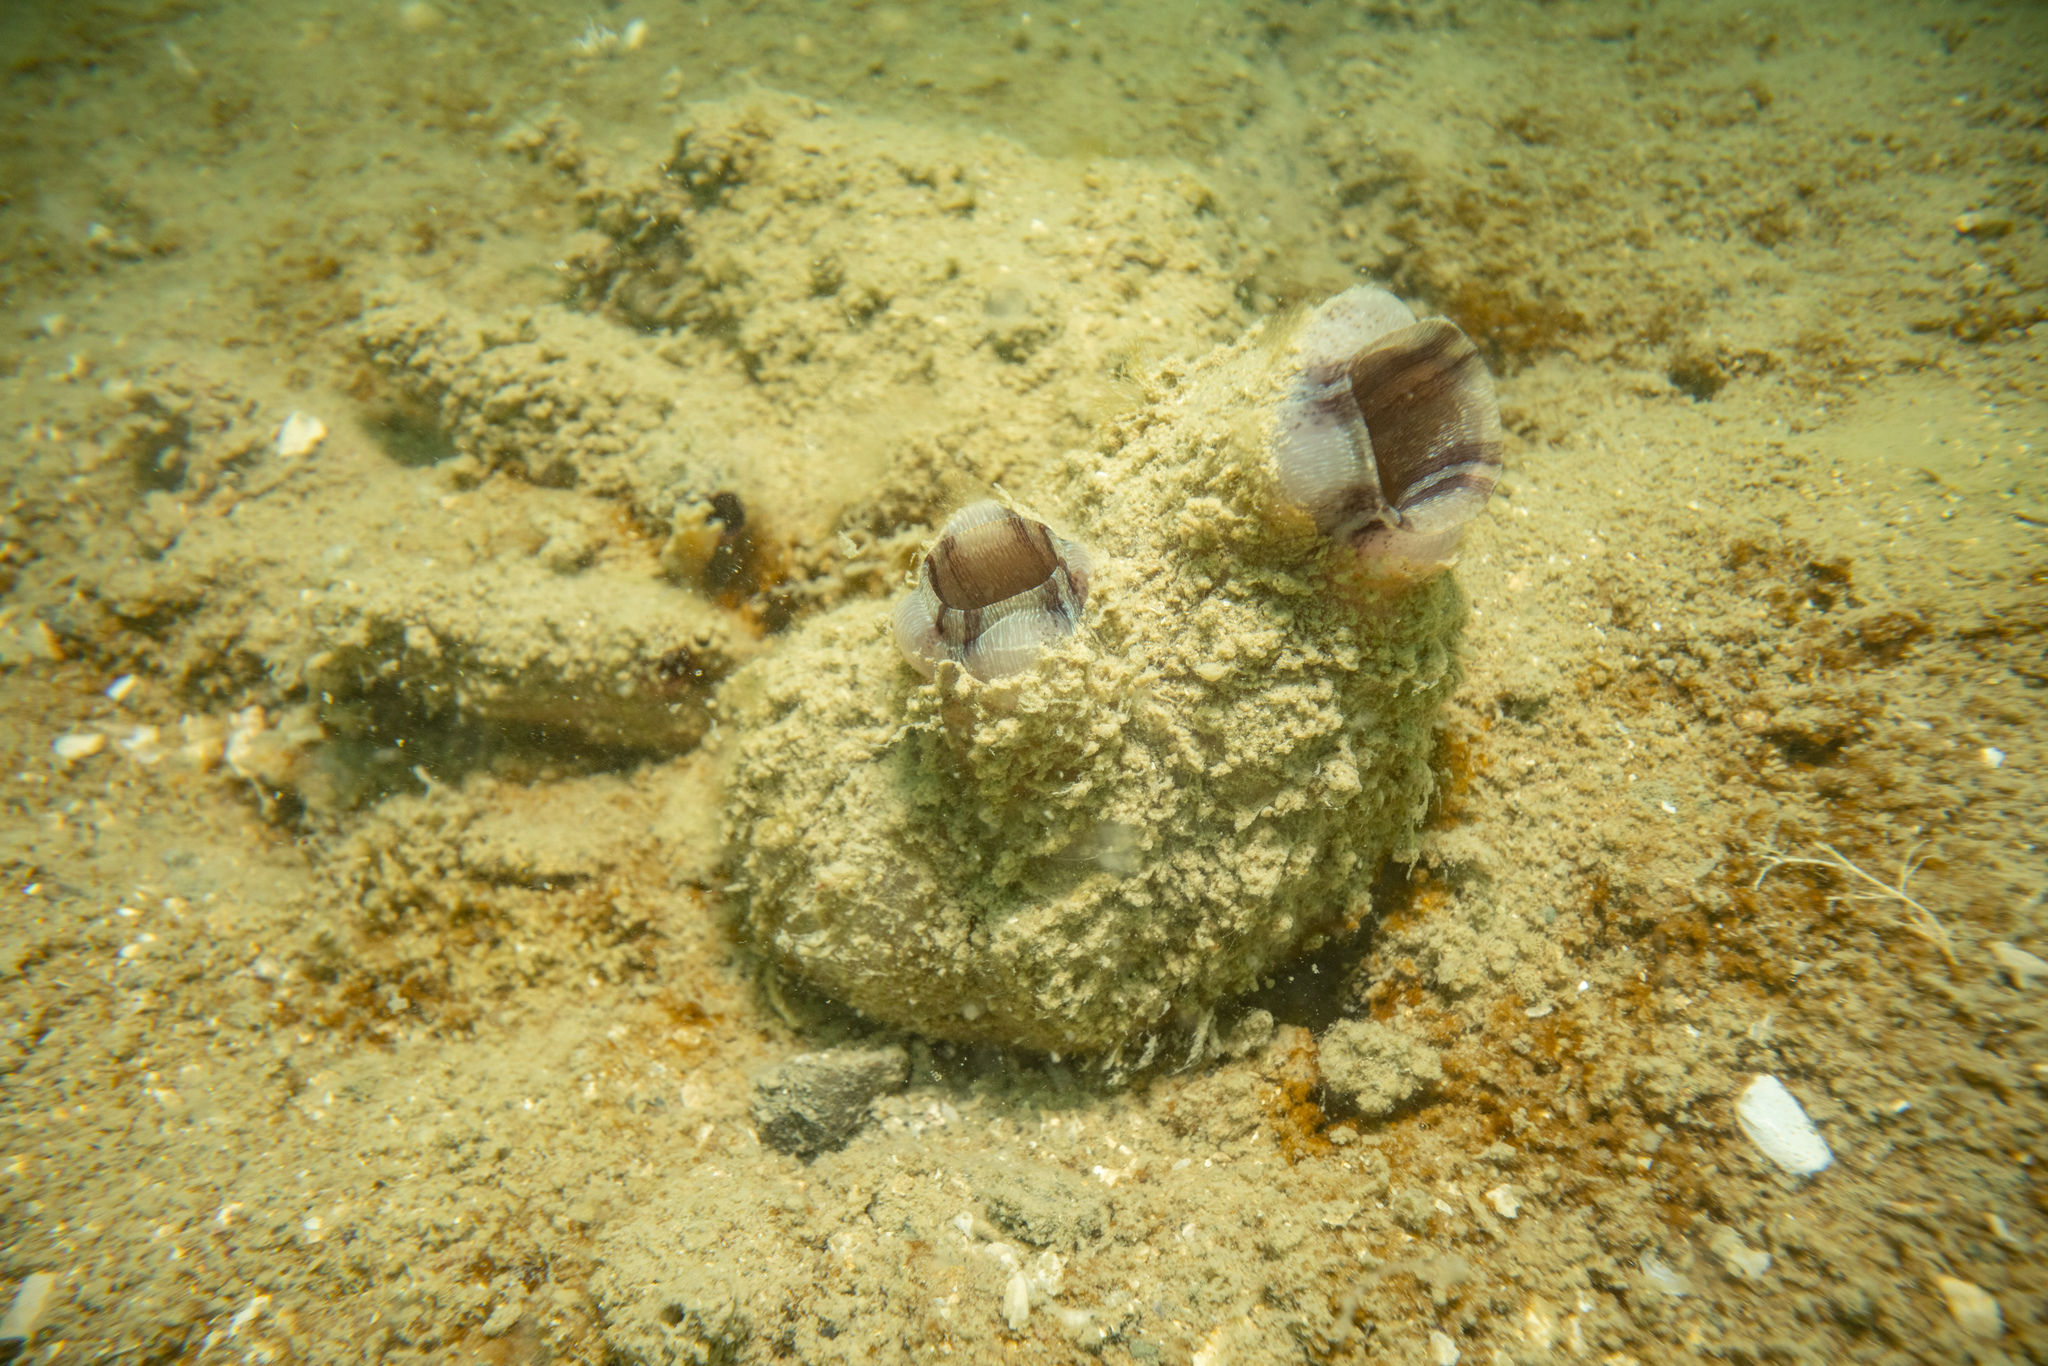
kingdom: Animalia
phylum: Chordata
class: Ascidiacea
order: Stolidobranchia
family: Styelidae
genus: Styela
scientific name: Styela plicata
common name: Pleated tunicate
